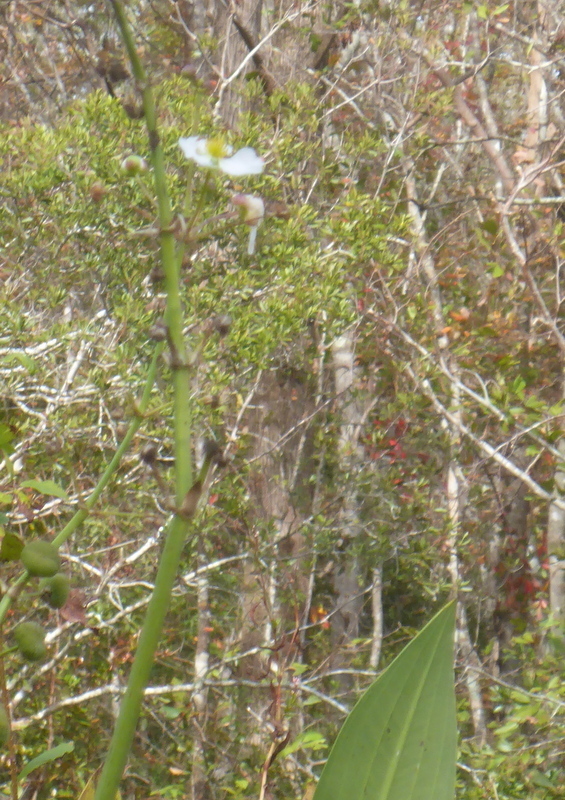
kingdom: Plantae
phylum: Tracheophyta
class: Liliopsida
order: Alismatales
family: Alismataceae
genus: Sagittaria
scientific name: Sagittaria lancifolia
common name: Lance-leaf arrowhead
